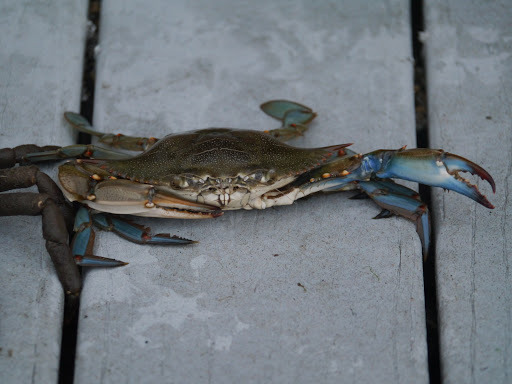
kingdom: Animalia
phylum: Arthropoda
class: Malacostraca
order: Decapoda
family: Portunidae
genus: Callinectes
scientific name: Callinectes sapidus
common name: Blue crab
